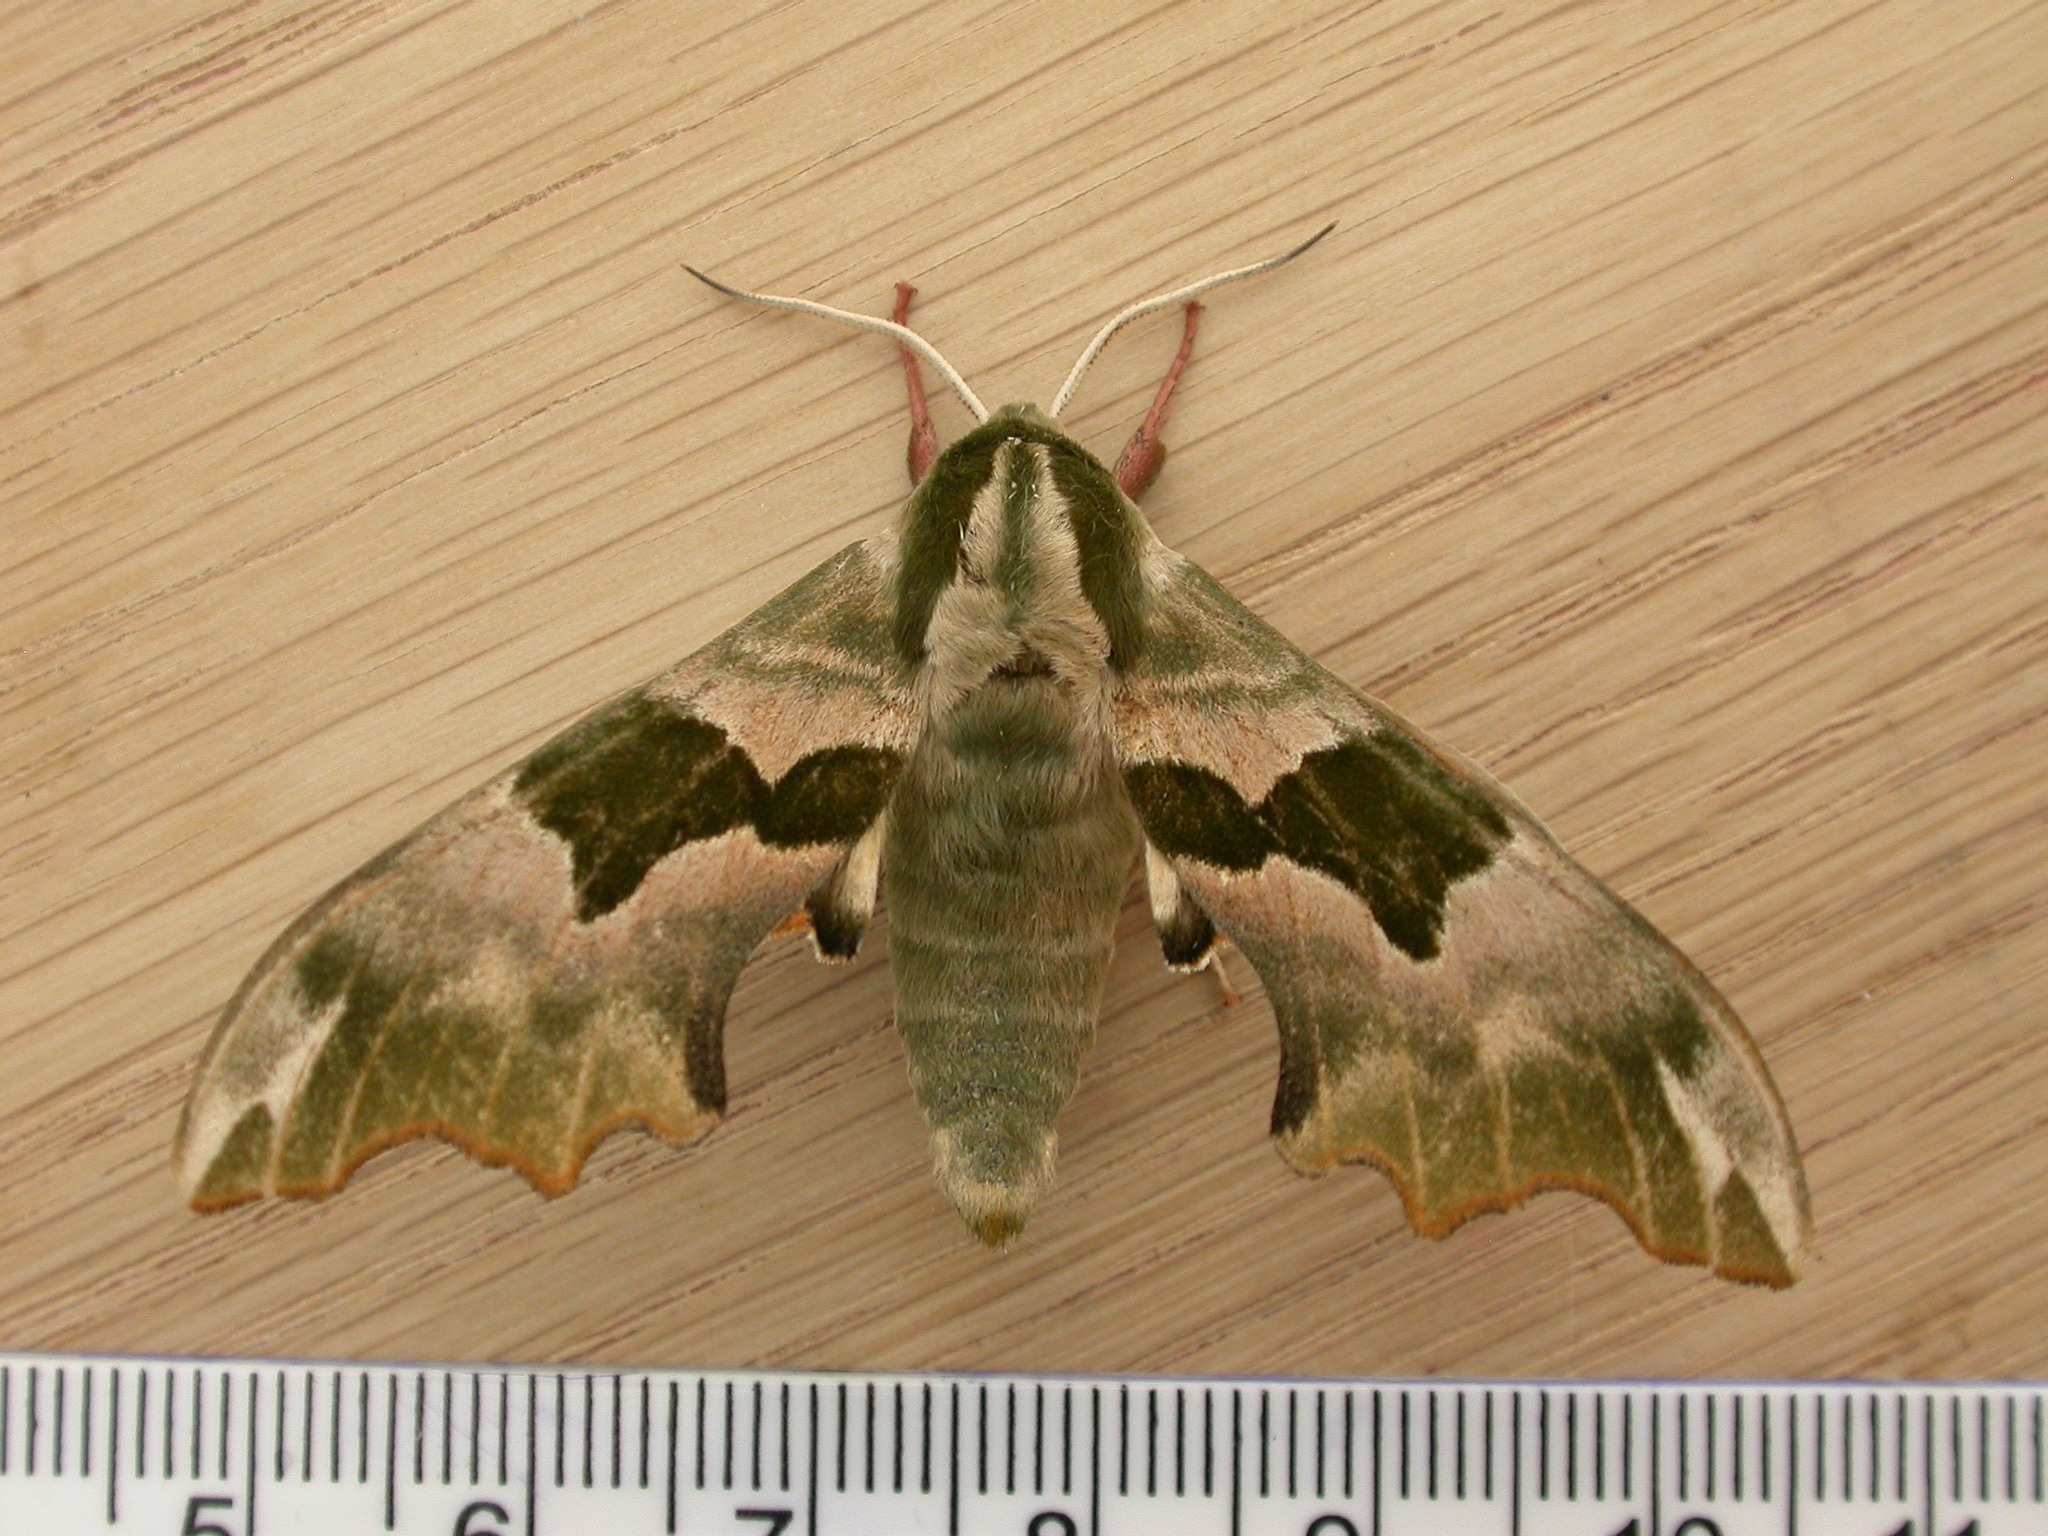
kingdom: Animalia
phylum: Arthropoda
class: Insecta
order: Lepidoptera
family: Sphingidae
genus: Mimas
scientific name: Mimas tiliae
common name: Lime hawk-moth
